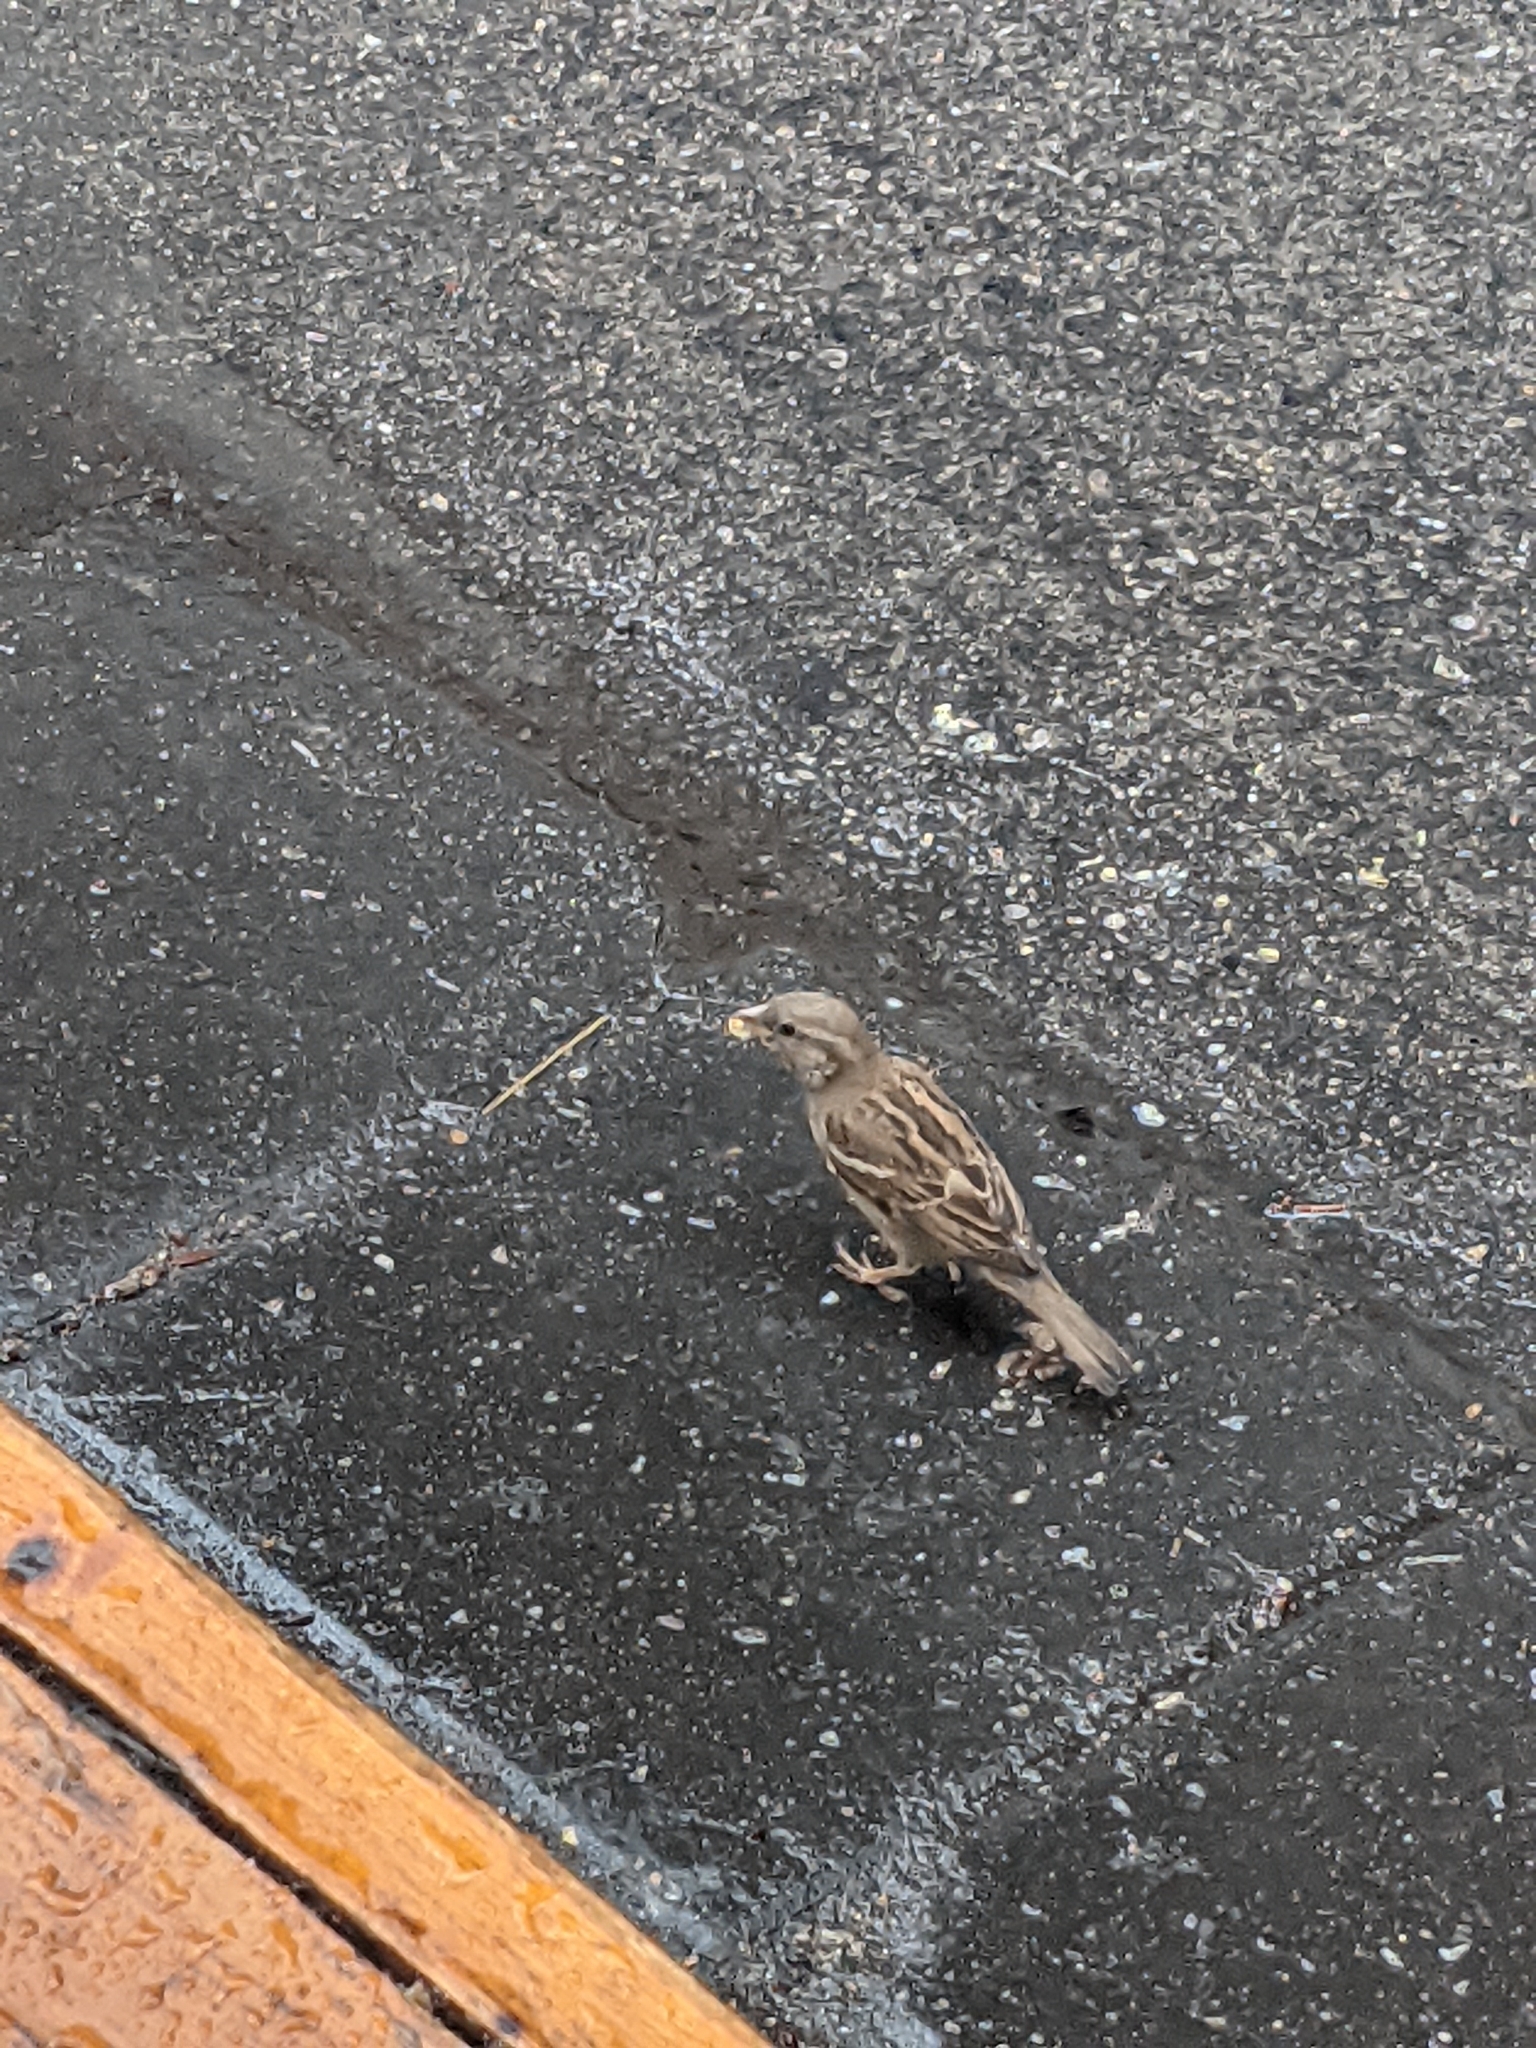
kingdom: Animalia
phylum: Chordata
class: Aves
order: Passeriformes
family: Passeridae
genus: Passer
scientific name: Passer domesticus
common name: House sparrow
